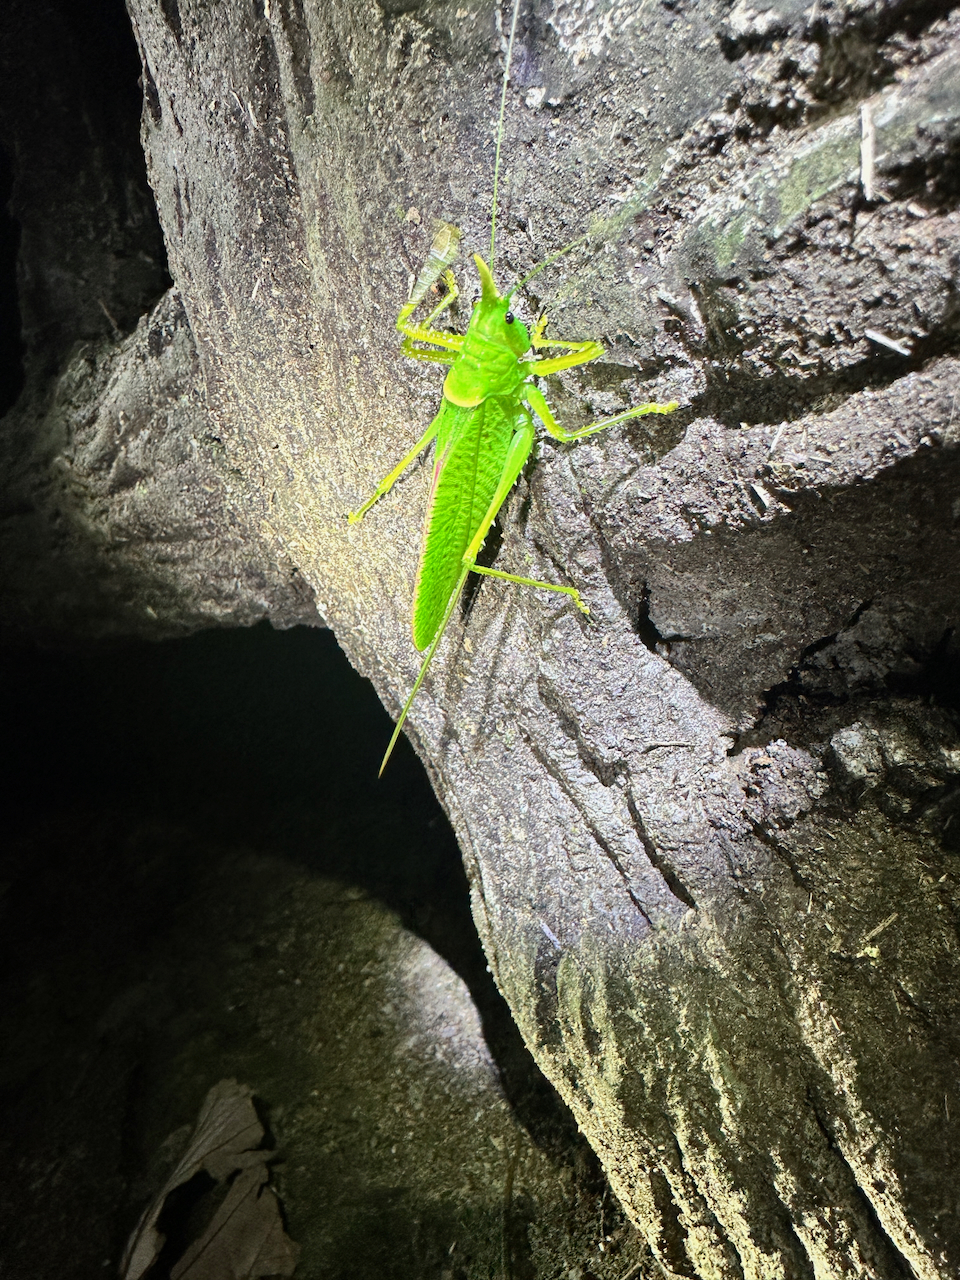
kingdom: Animalia
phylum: Arthropoda
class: Insecta
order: Orthoptera
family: Tettigoniidae
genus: Copiphora
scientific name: Copiphora rhinoceros
